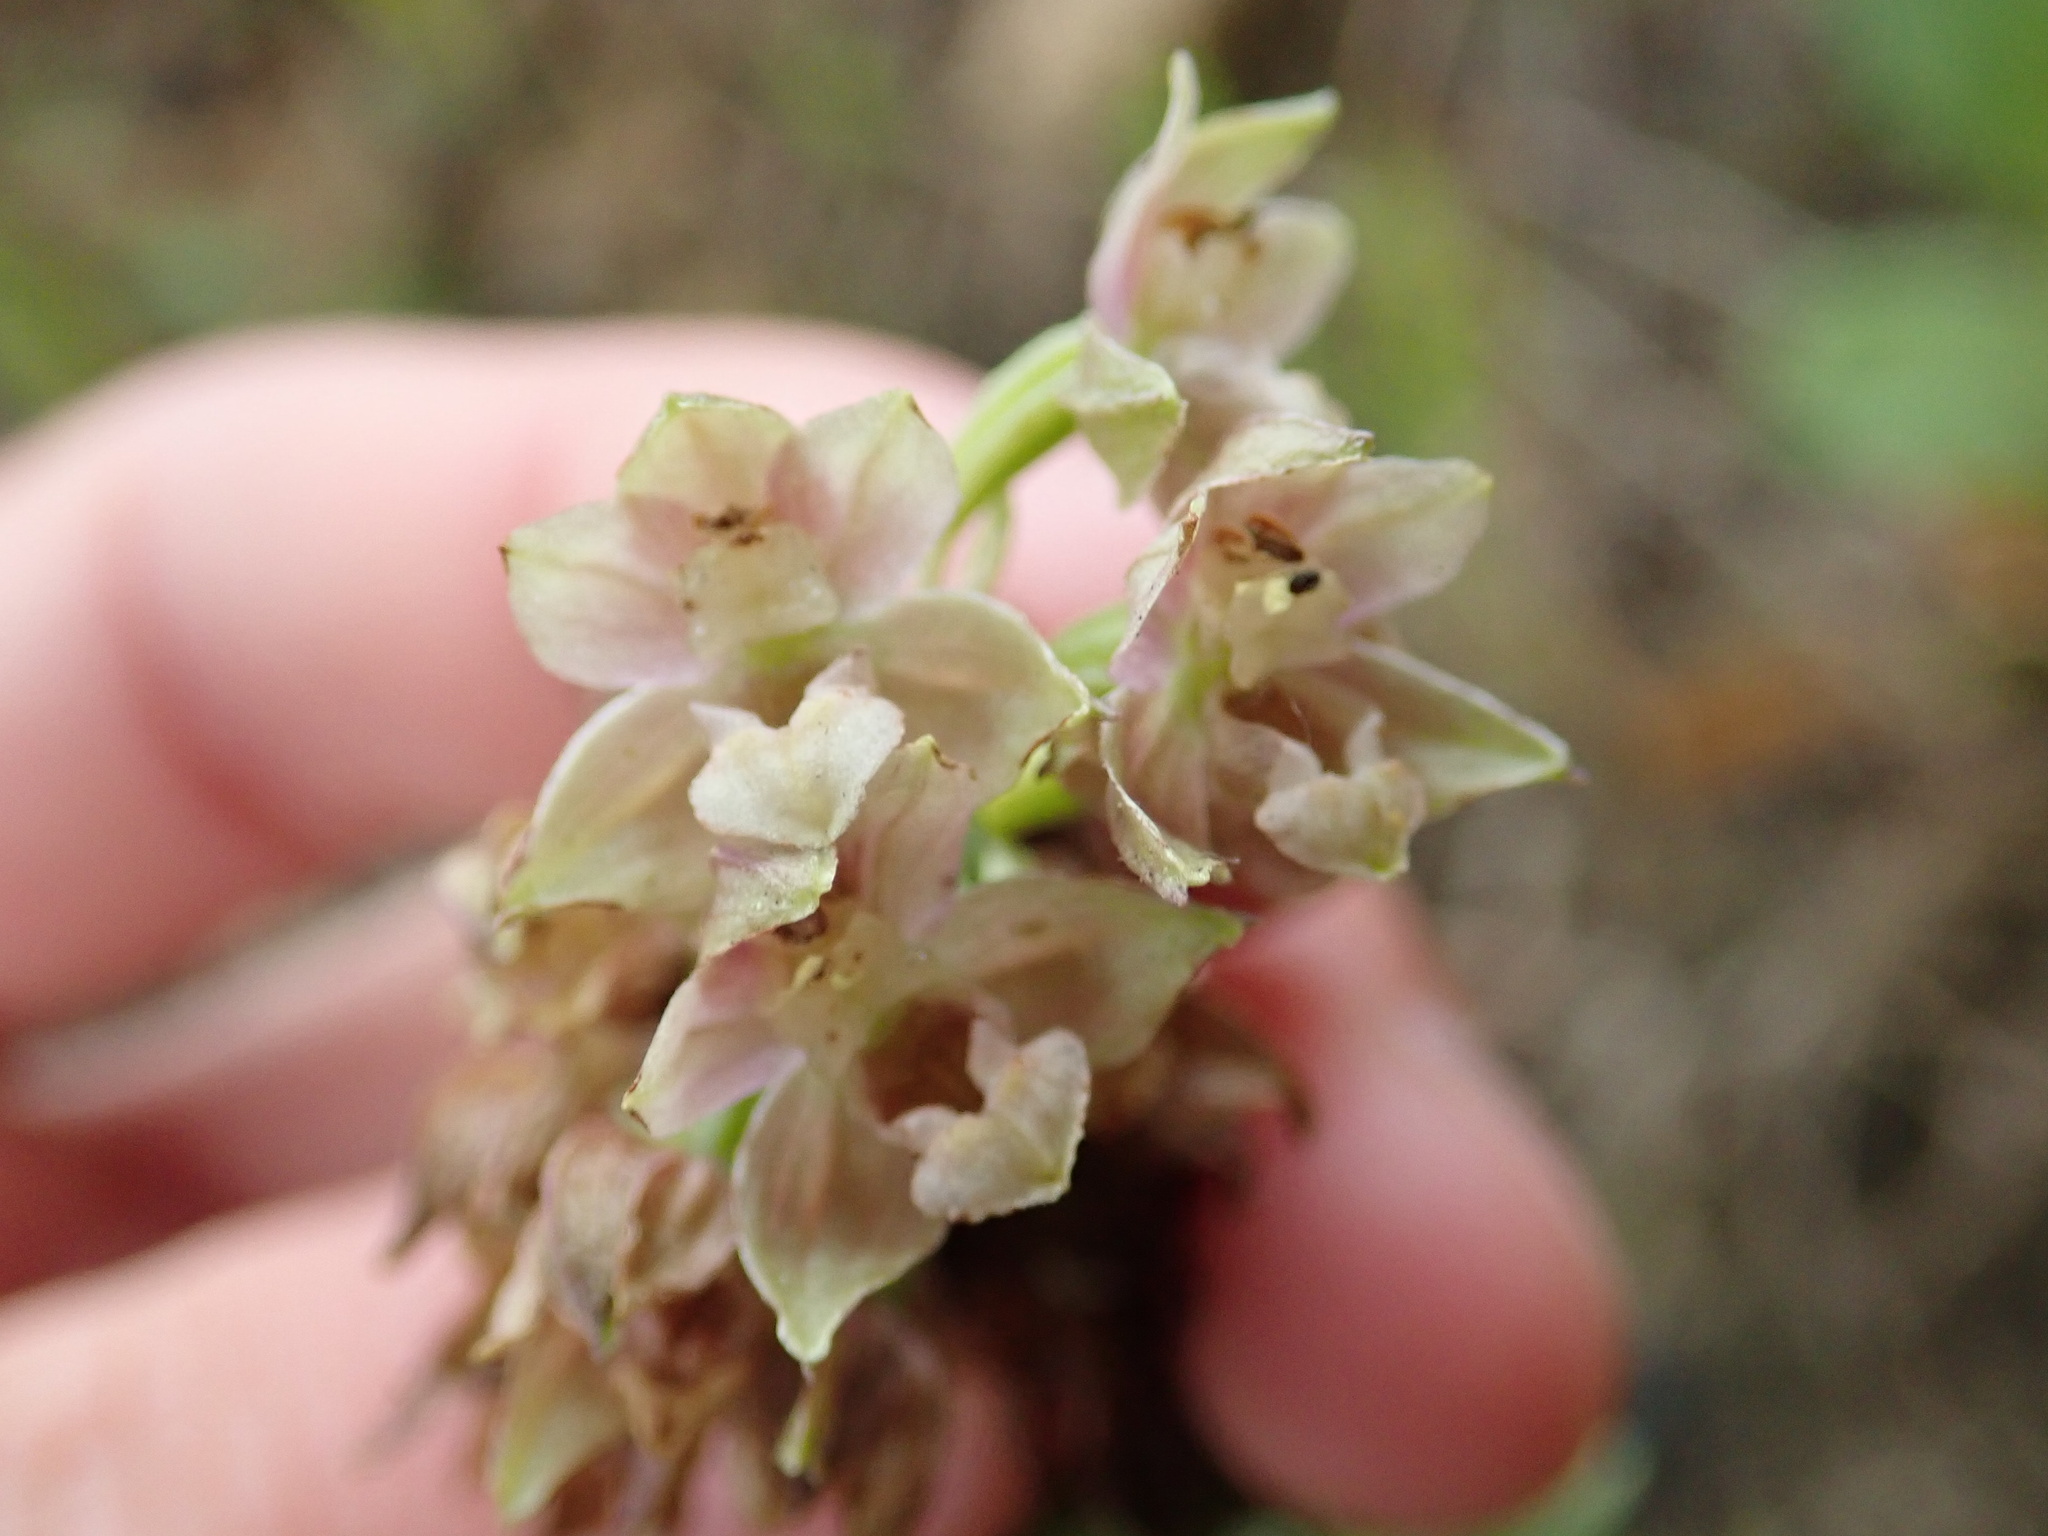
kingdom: Plantae
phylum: Tracheophyta
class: Liliopsida
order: Asparagales
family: Orchidaceae
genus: Epipactis
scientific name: Epipactis helleborine
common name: Broad-leaved helleborine
